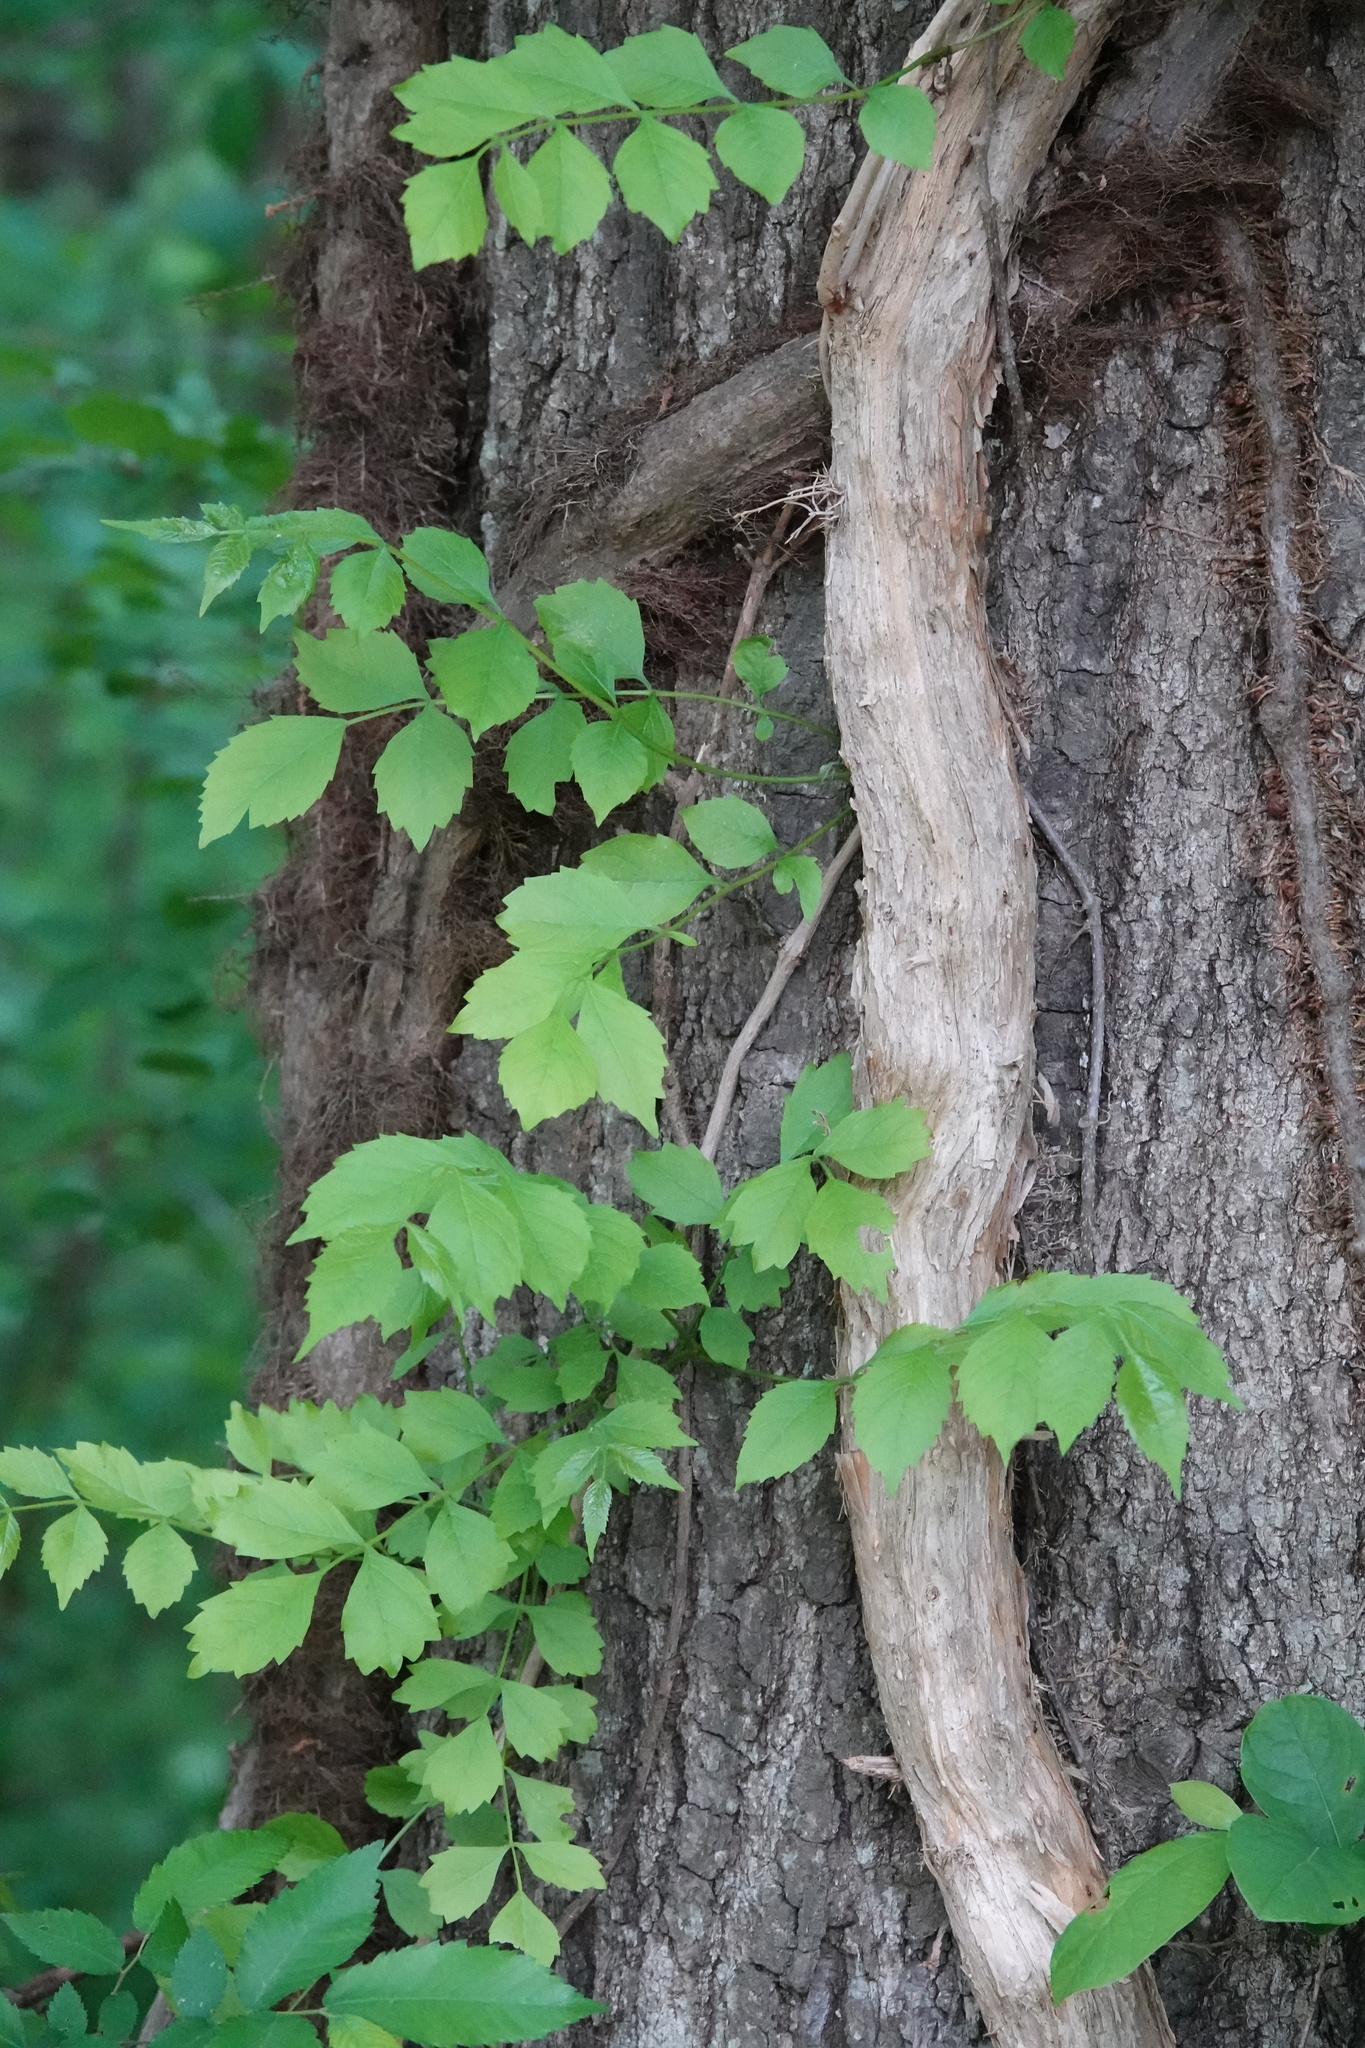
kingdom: Plantae
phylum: Tracheophyta
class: Magnoliopsida
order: Lamiales
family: Bignoniaceae
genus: Campsis
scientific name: Campsis radicans
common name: Trumpet-creeper
